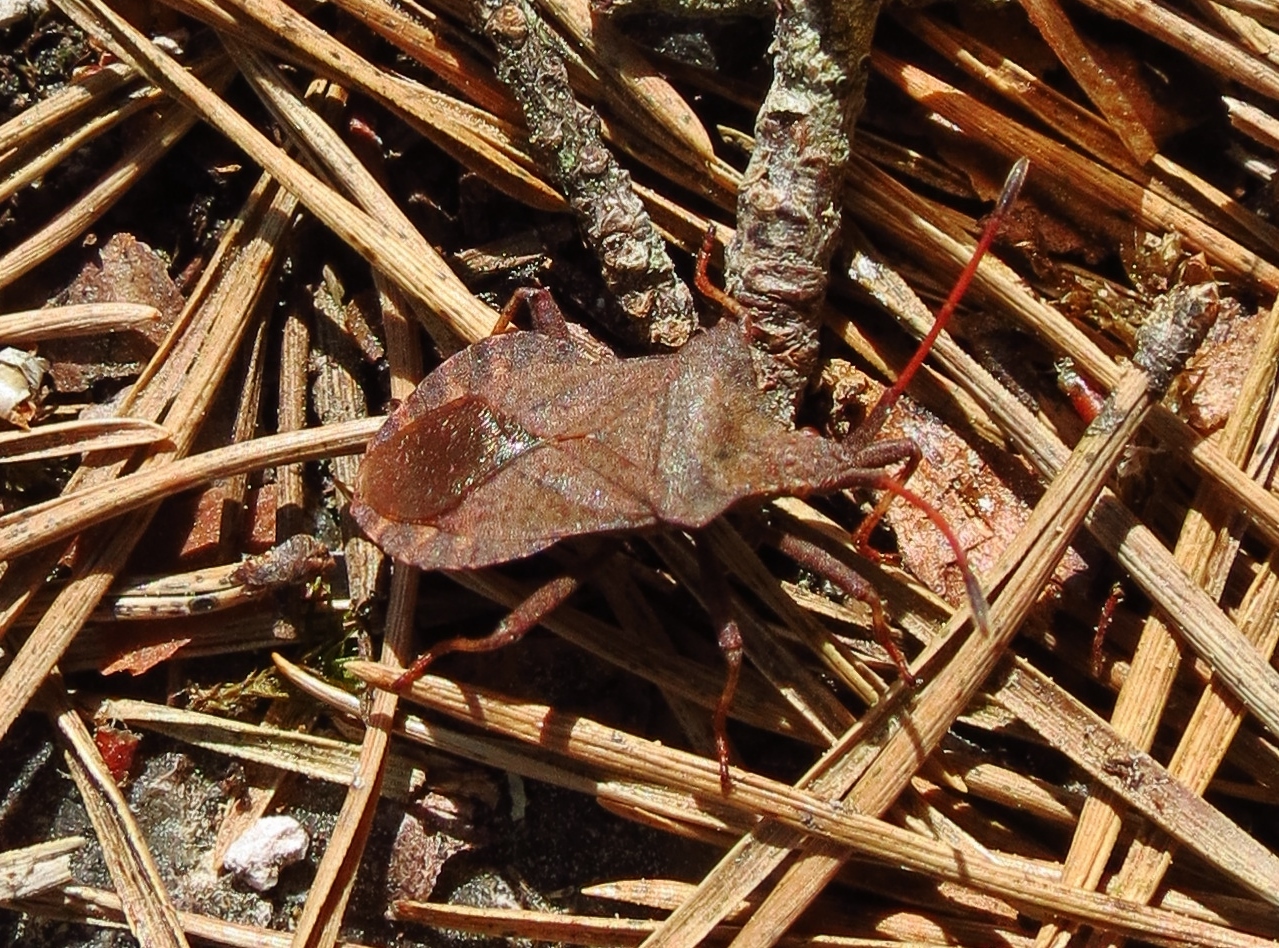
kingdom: Animalia
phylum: Arthropoda
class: Insecta
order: Hemiptera
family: Coreidae
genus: Coreus
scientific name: Coreus marginatus
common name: Dock bug
